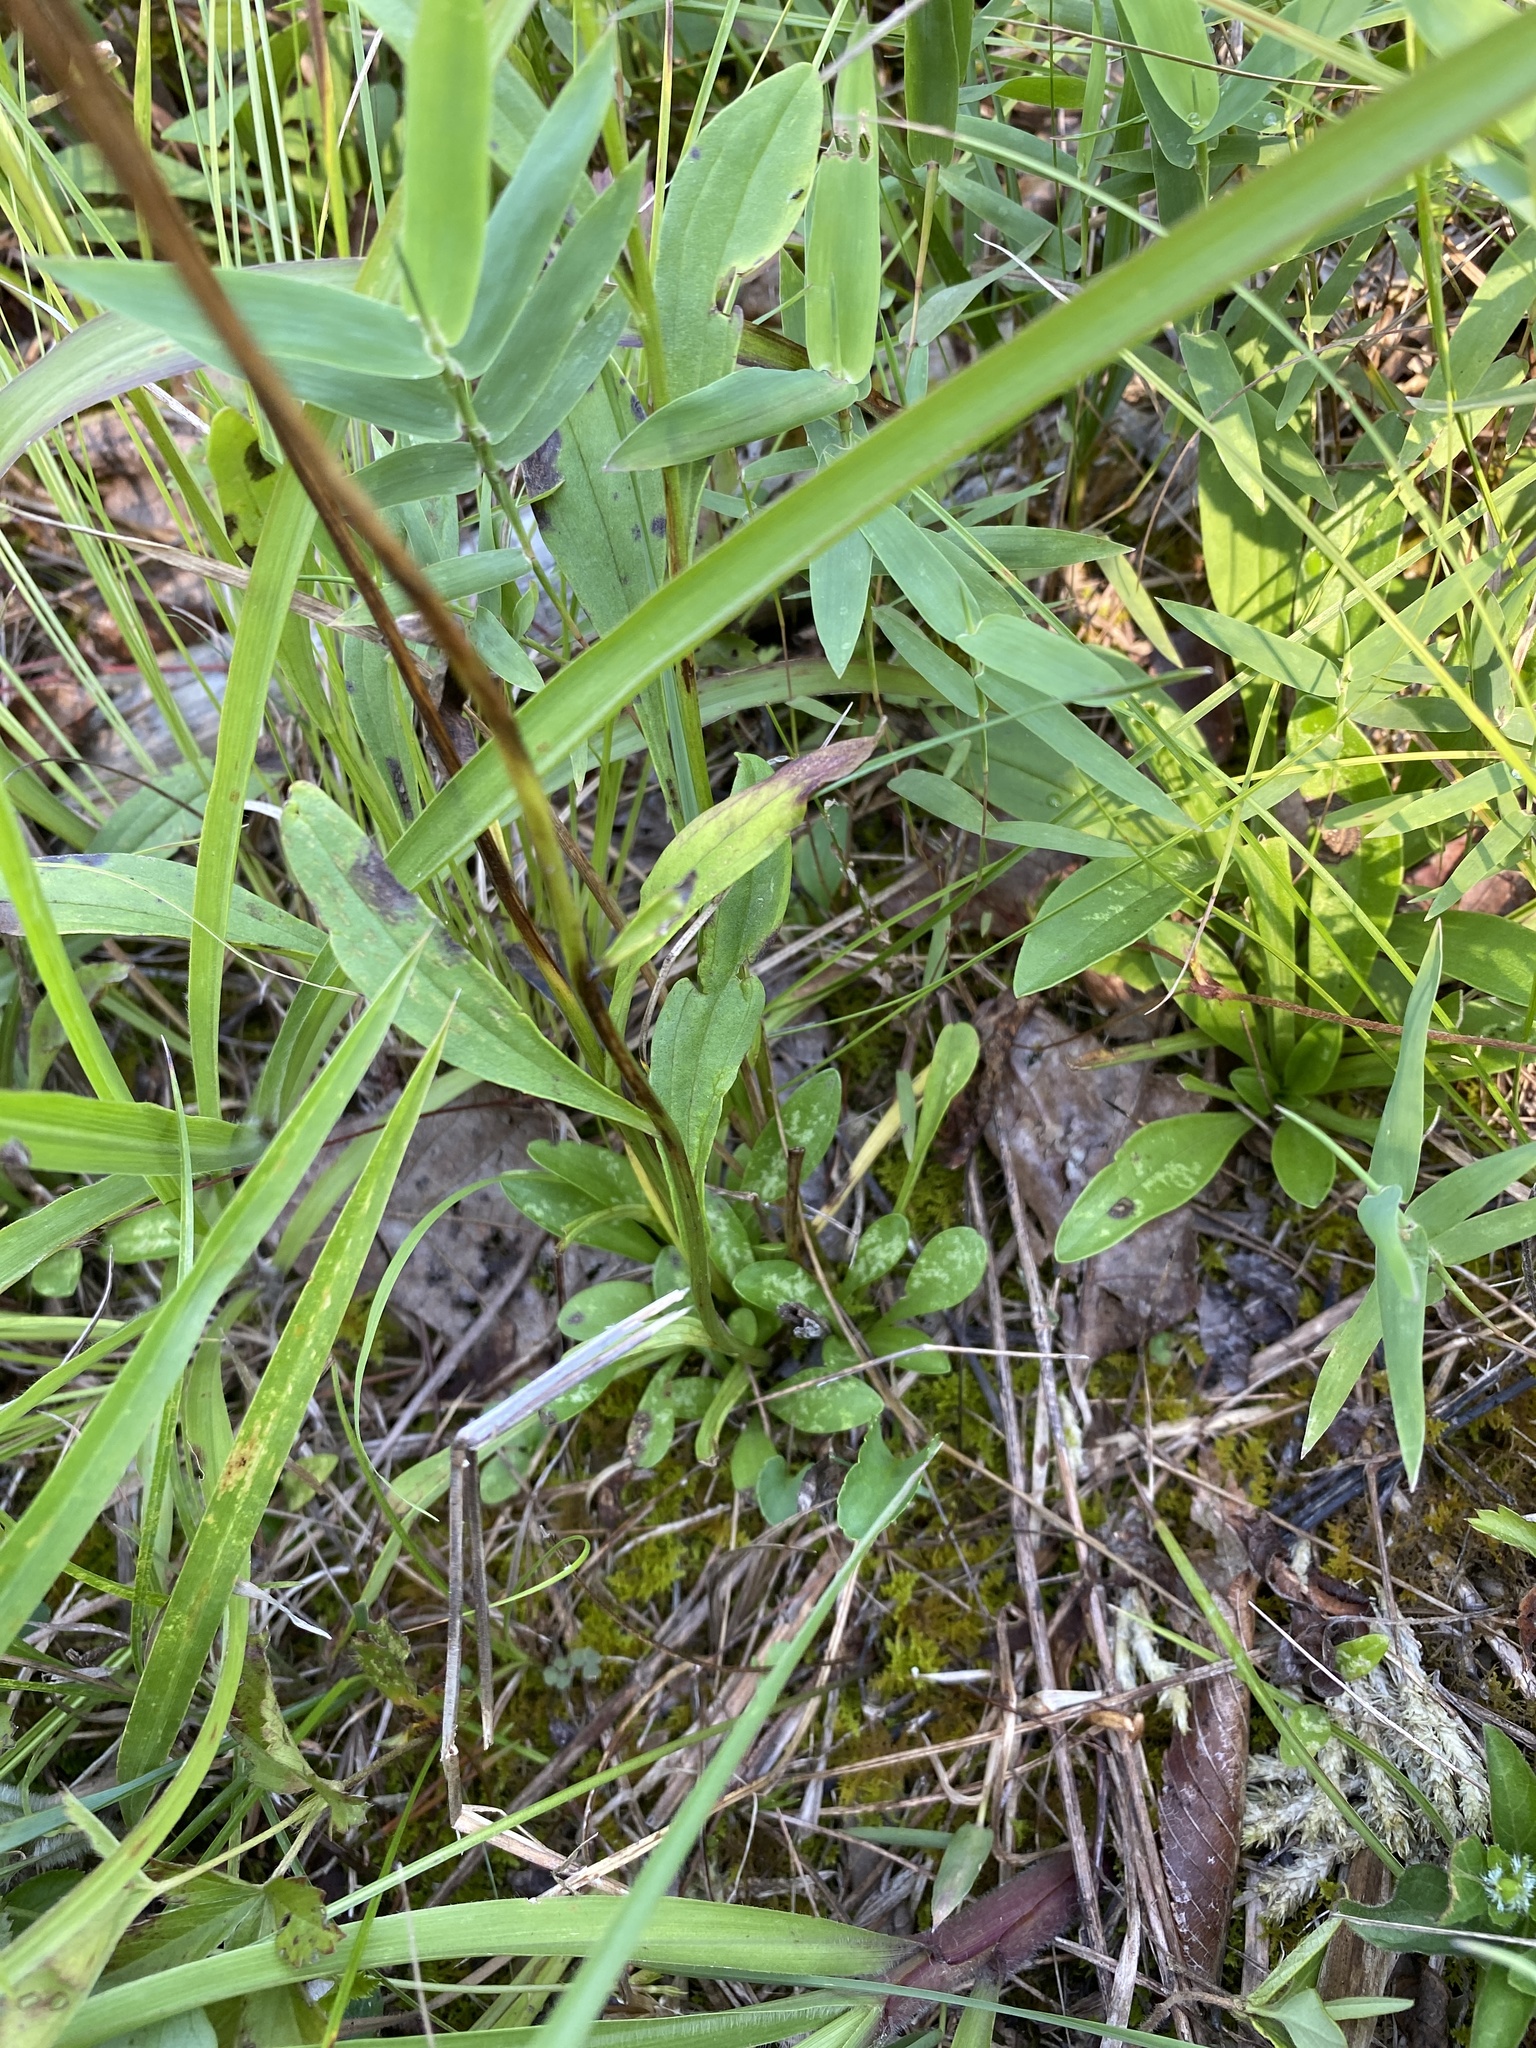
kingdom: Plantae
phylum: Tracheophyta
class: Magnoliopsida
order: Asterales
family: Asteraceae
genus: Marshallia
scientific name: Marshallia obovata
